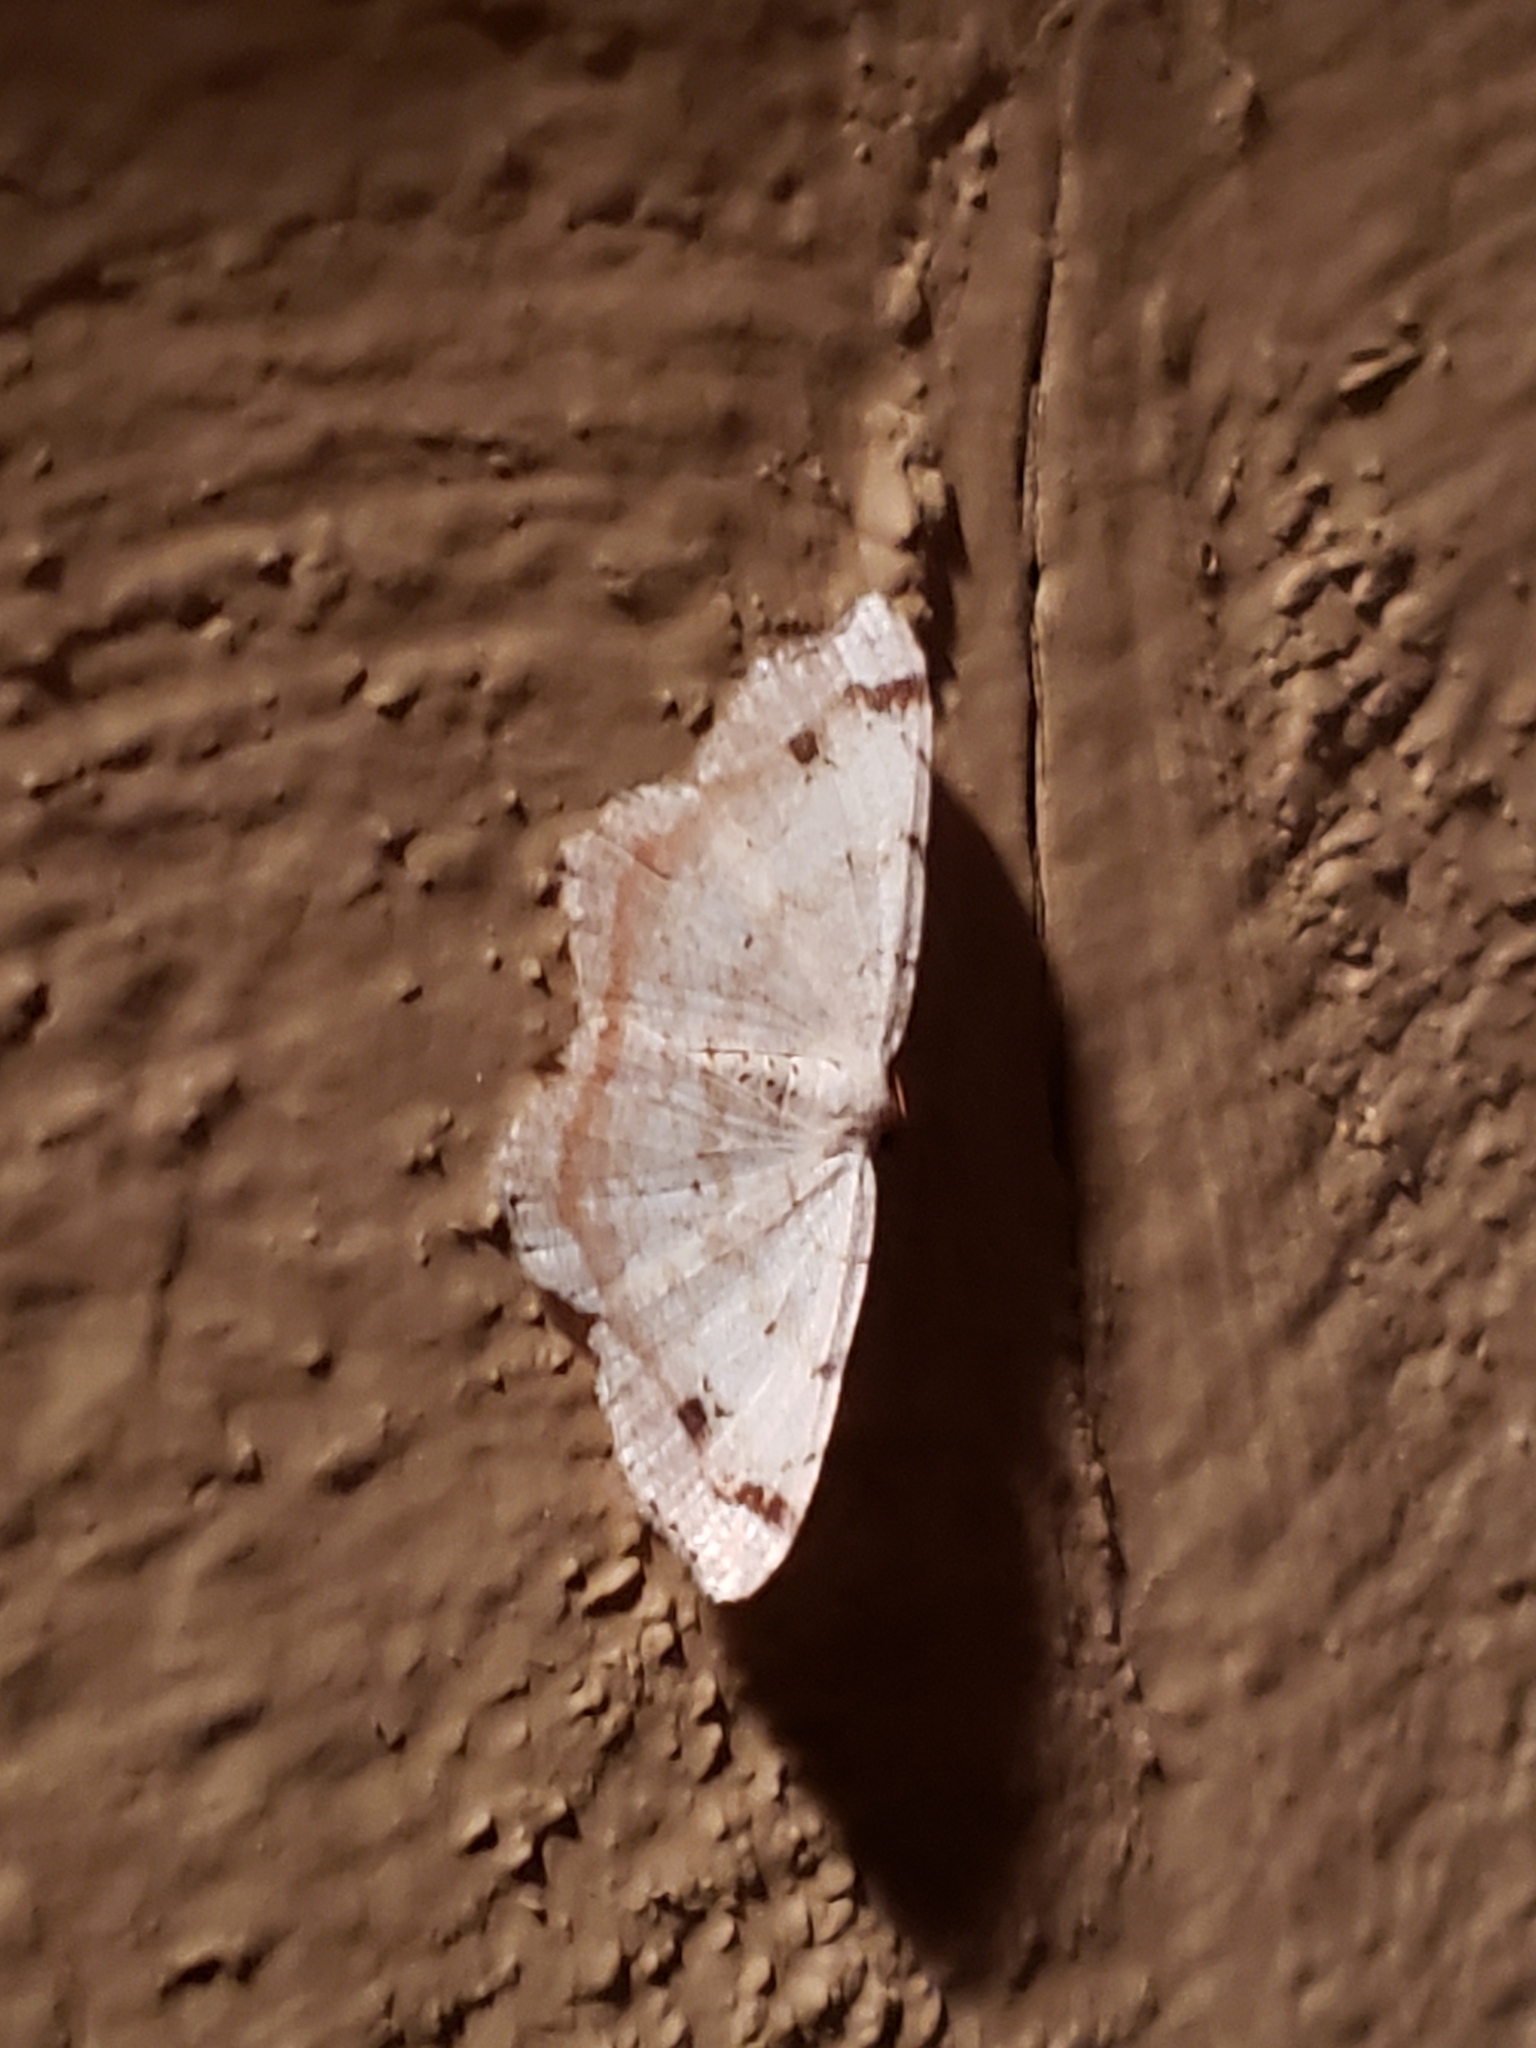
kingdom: Animalia
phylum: Arthropoda
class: Insecta
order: Lepidoptera
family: Geometridae
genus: Macaria
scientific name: Macaria bisignata
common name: Red-headed inchworm
